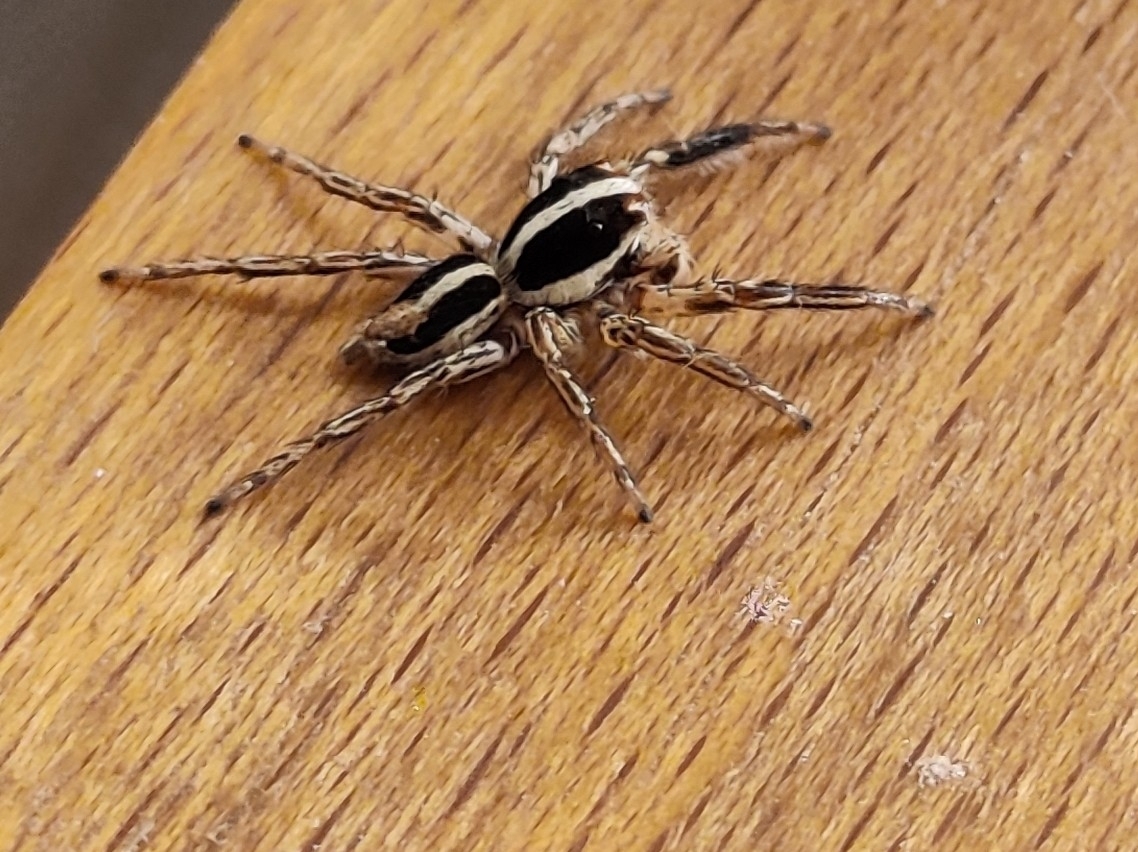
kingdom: Animalia
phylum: Arthropoda
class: Arachnida
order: Araneae
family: Salticidae
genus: Plexippus
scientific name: Plexippus paykulli
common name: Pantropical jumper
